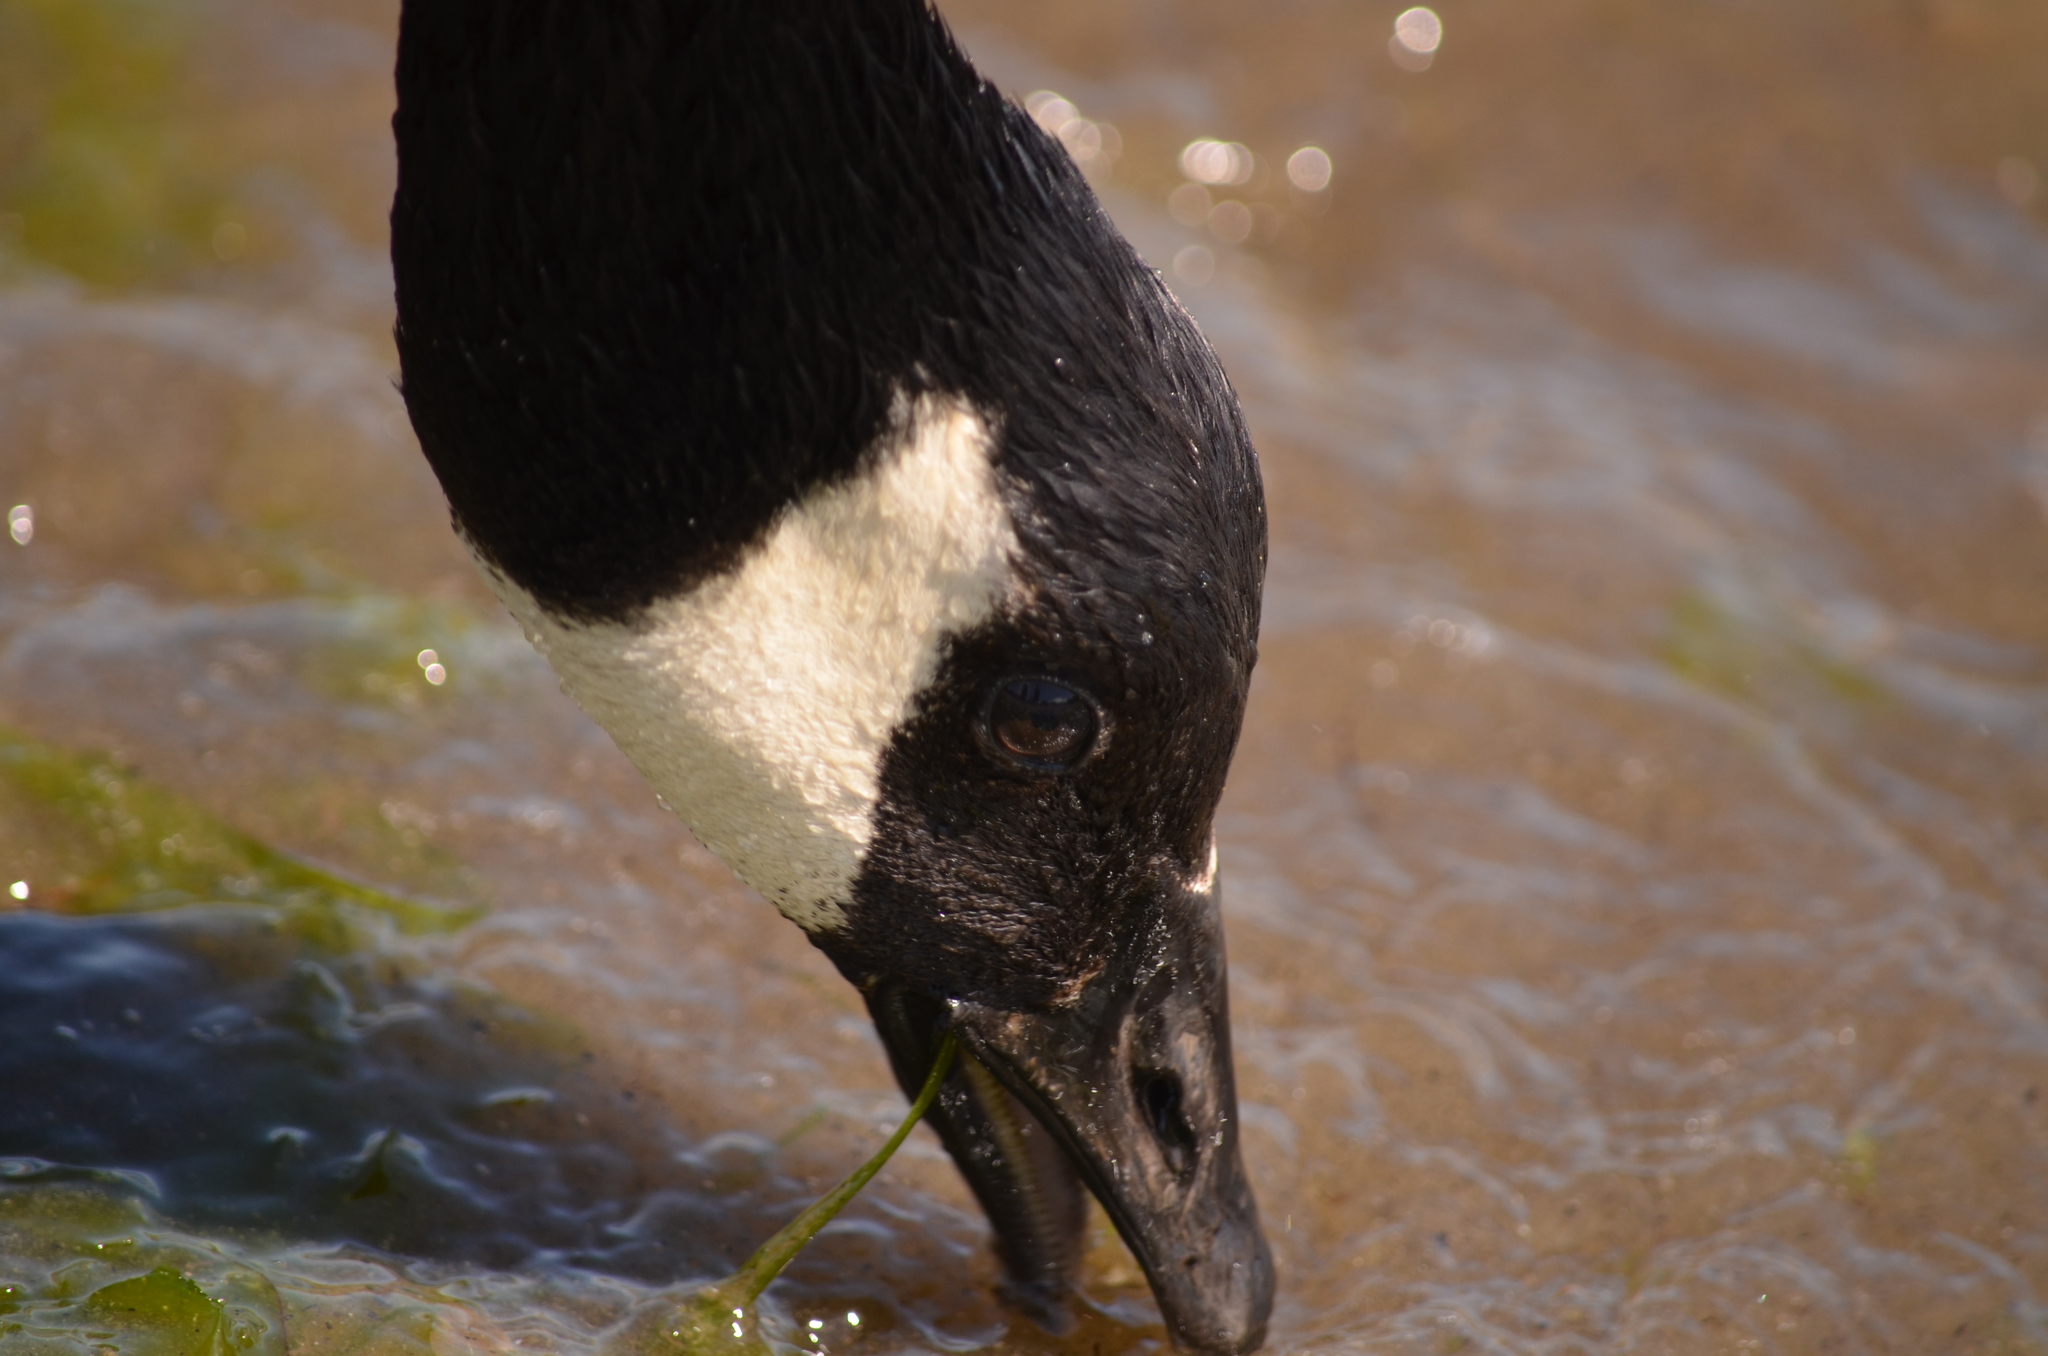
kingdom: Animalia
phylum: Chordata
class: Aves
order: Anseriformes
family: Anatidae
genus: Branta
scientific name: Branta canadensis
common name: Canada goose
